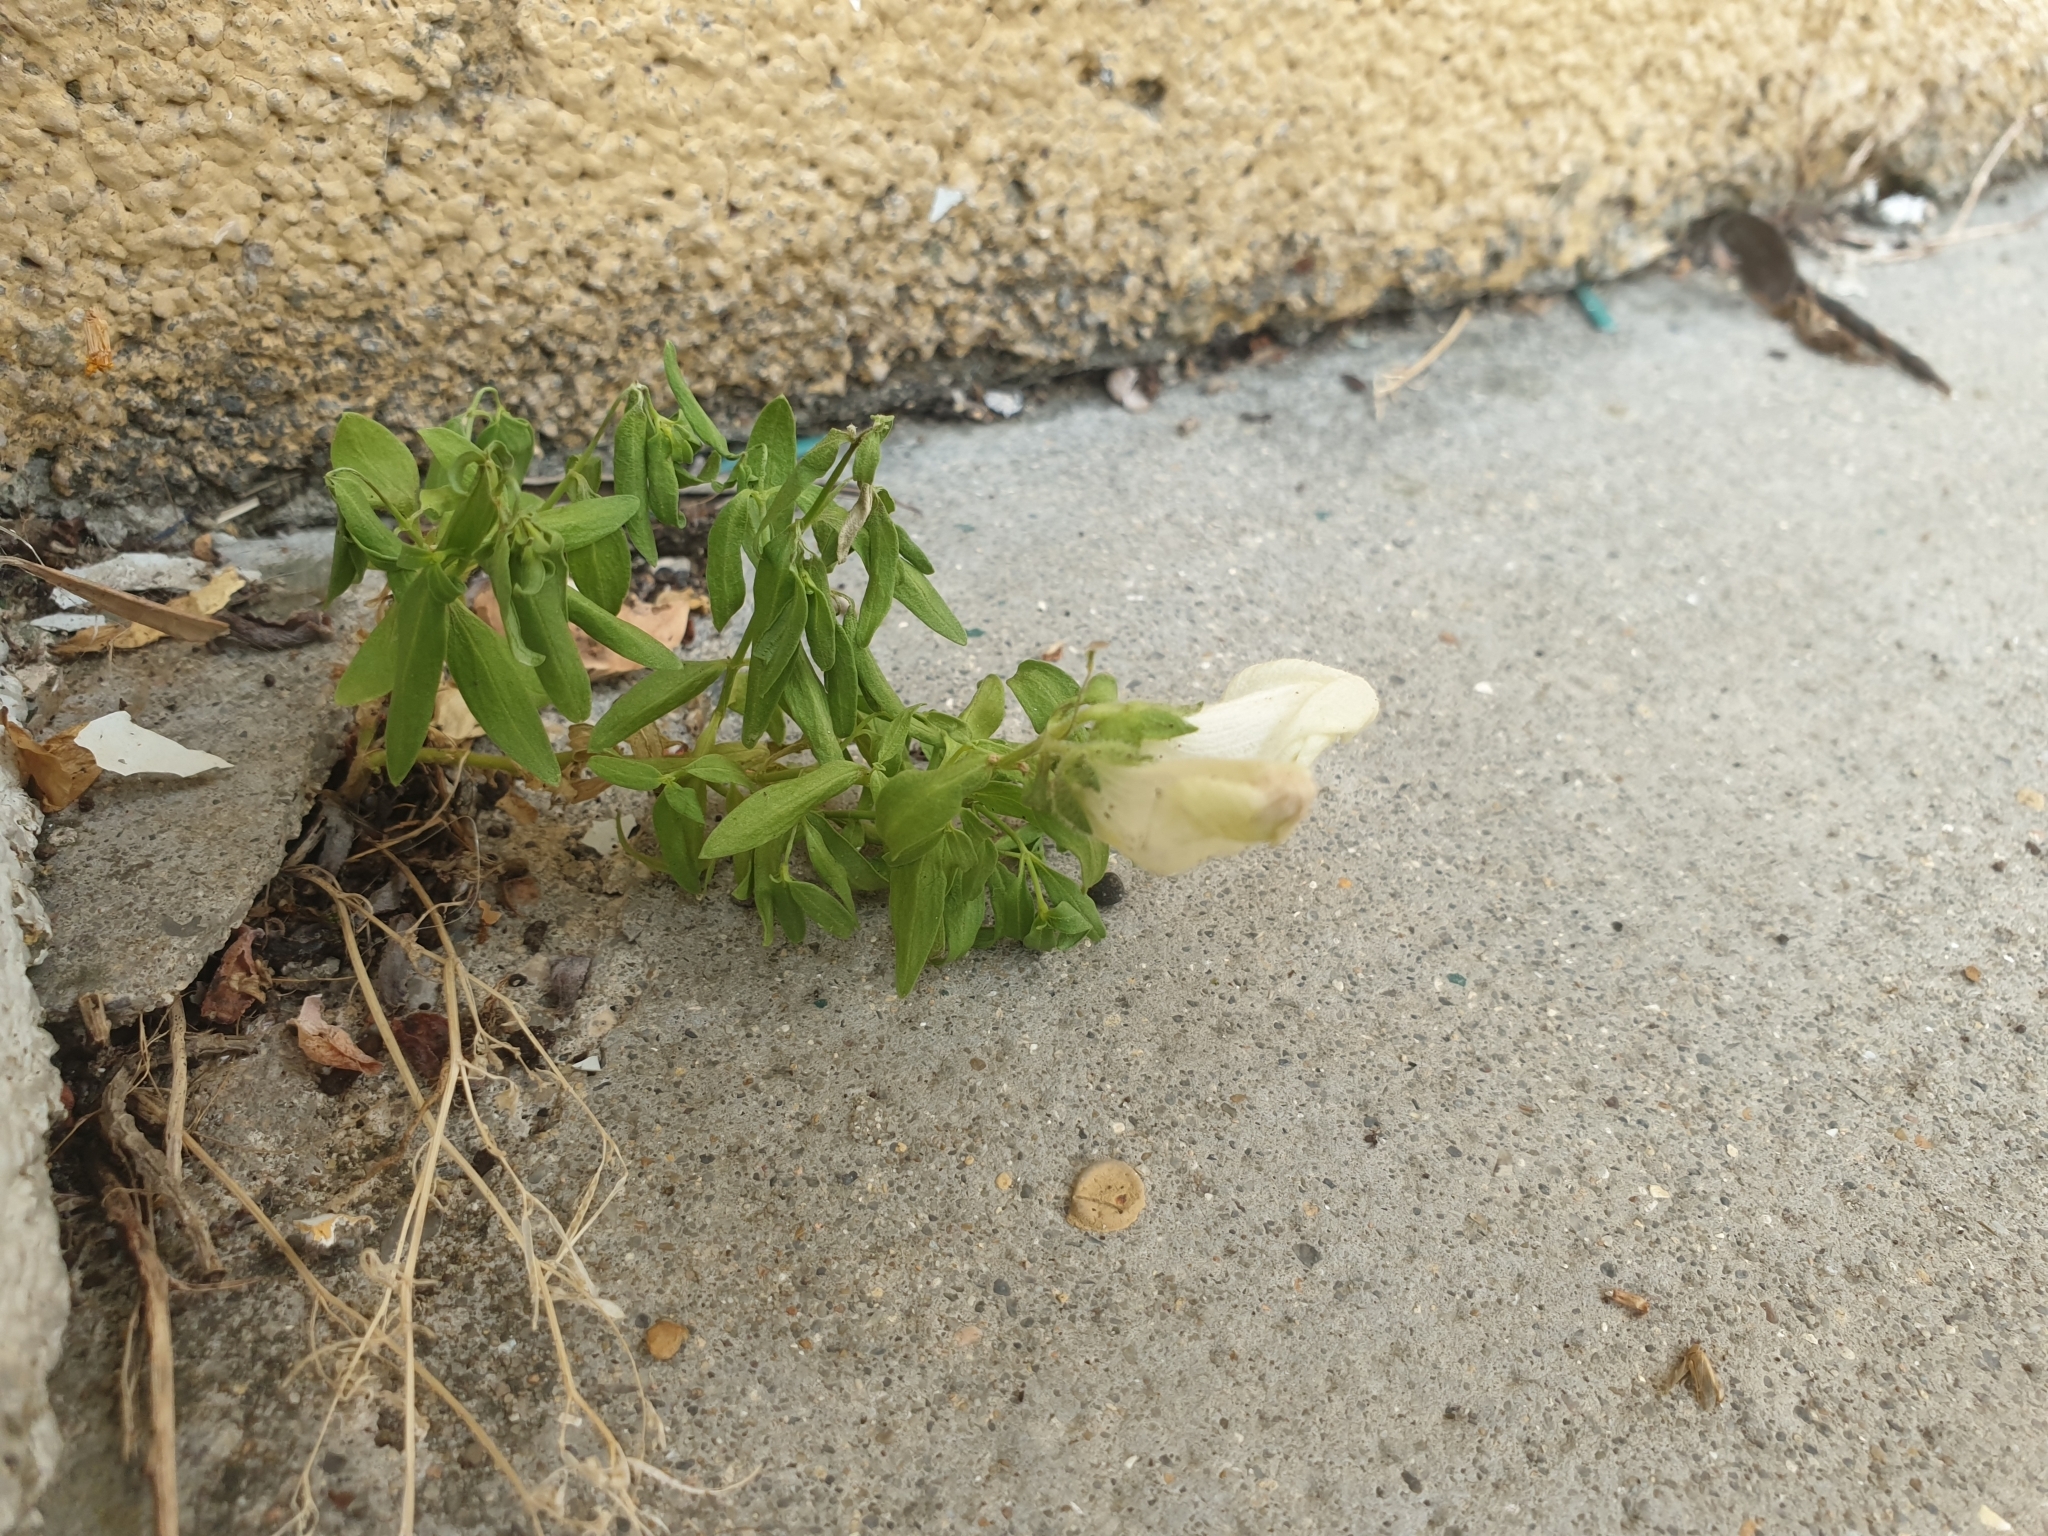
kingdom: Plantae
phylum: Tracheophyta
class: Magnoliopsida
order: Lamiales
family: Plantaginaceae
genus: Antirrhinum
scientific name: Antirrhinum majus
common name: Snapdragon
